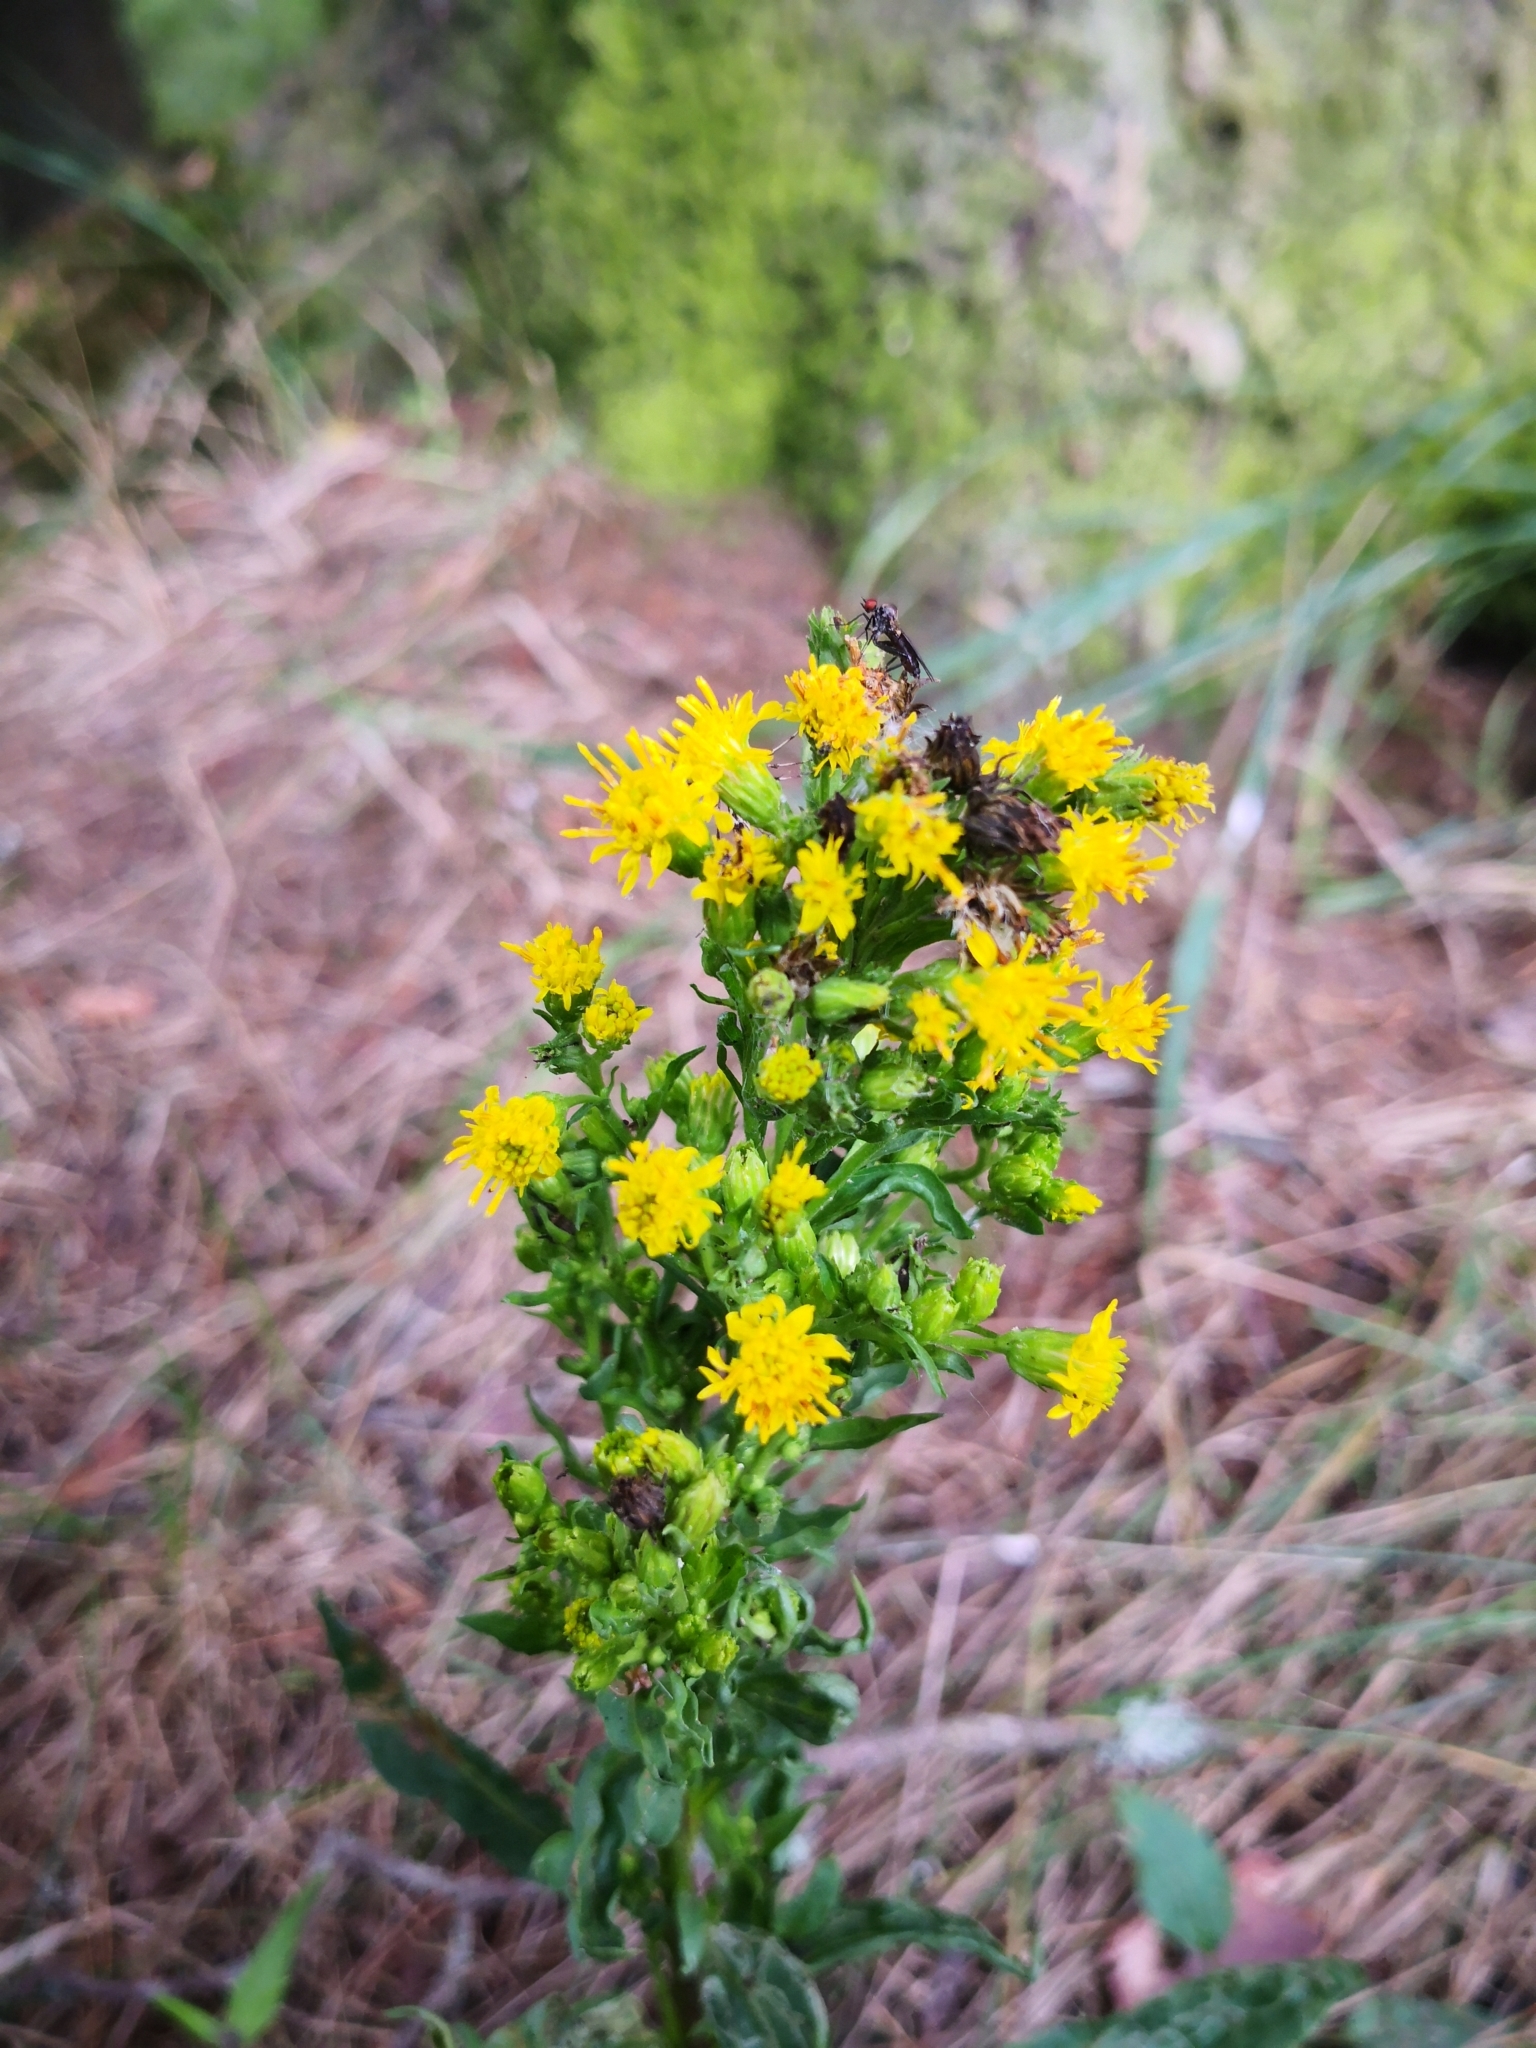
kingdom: Plantae
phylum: Tracheophyta
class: Magnoliopsida
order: Asterales
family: Asteraceae
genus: Solidago
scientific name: Solidago virgaurea
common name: Goldenrod
